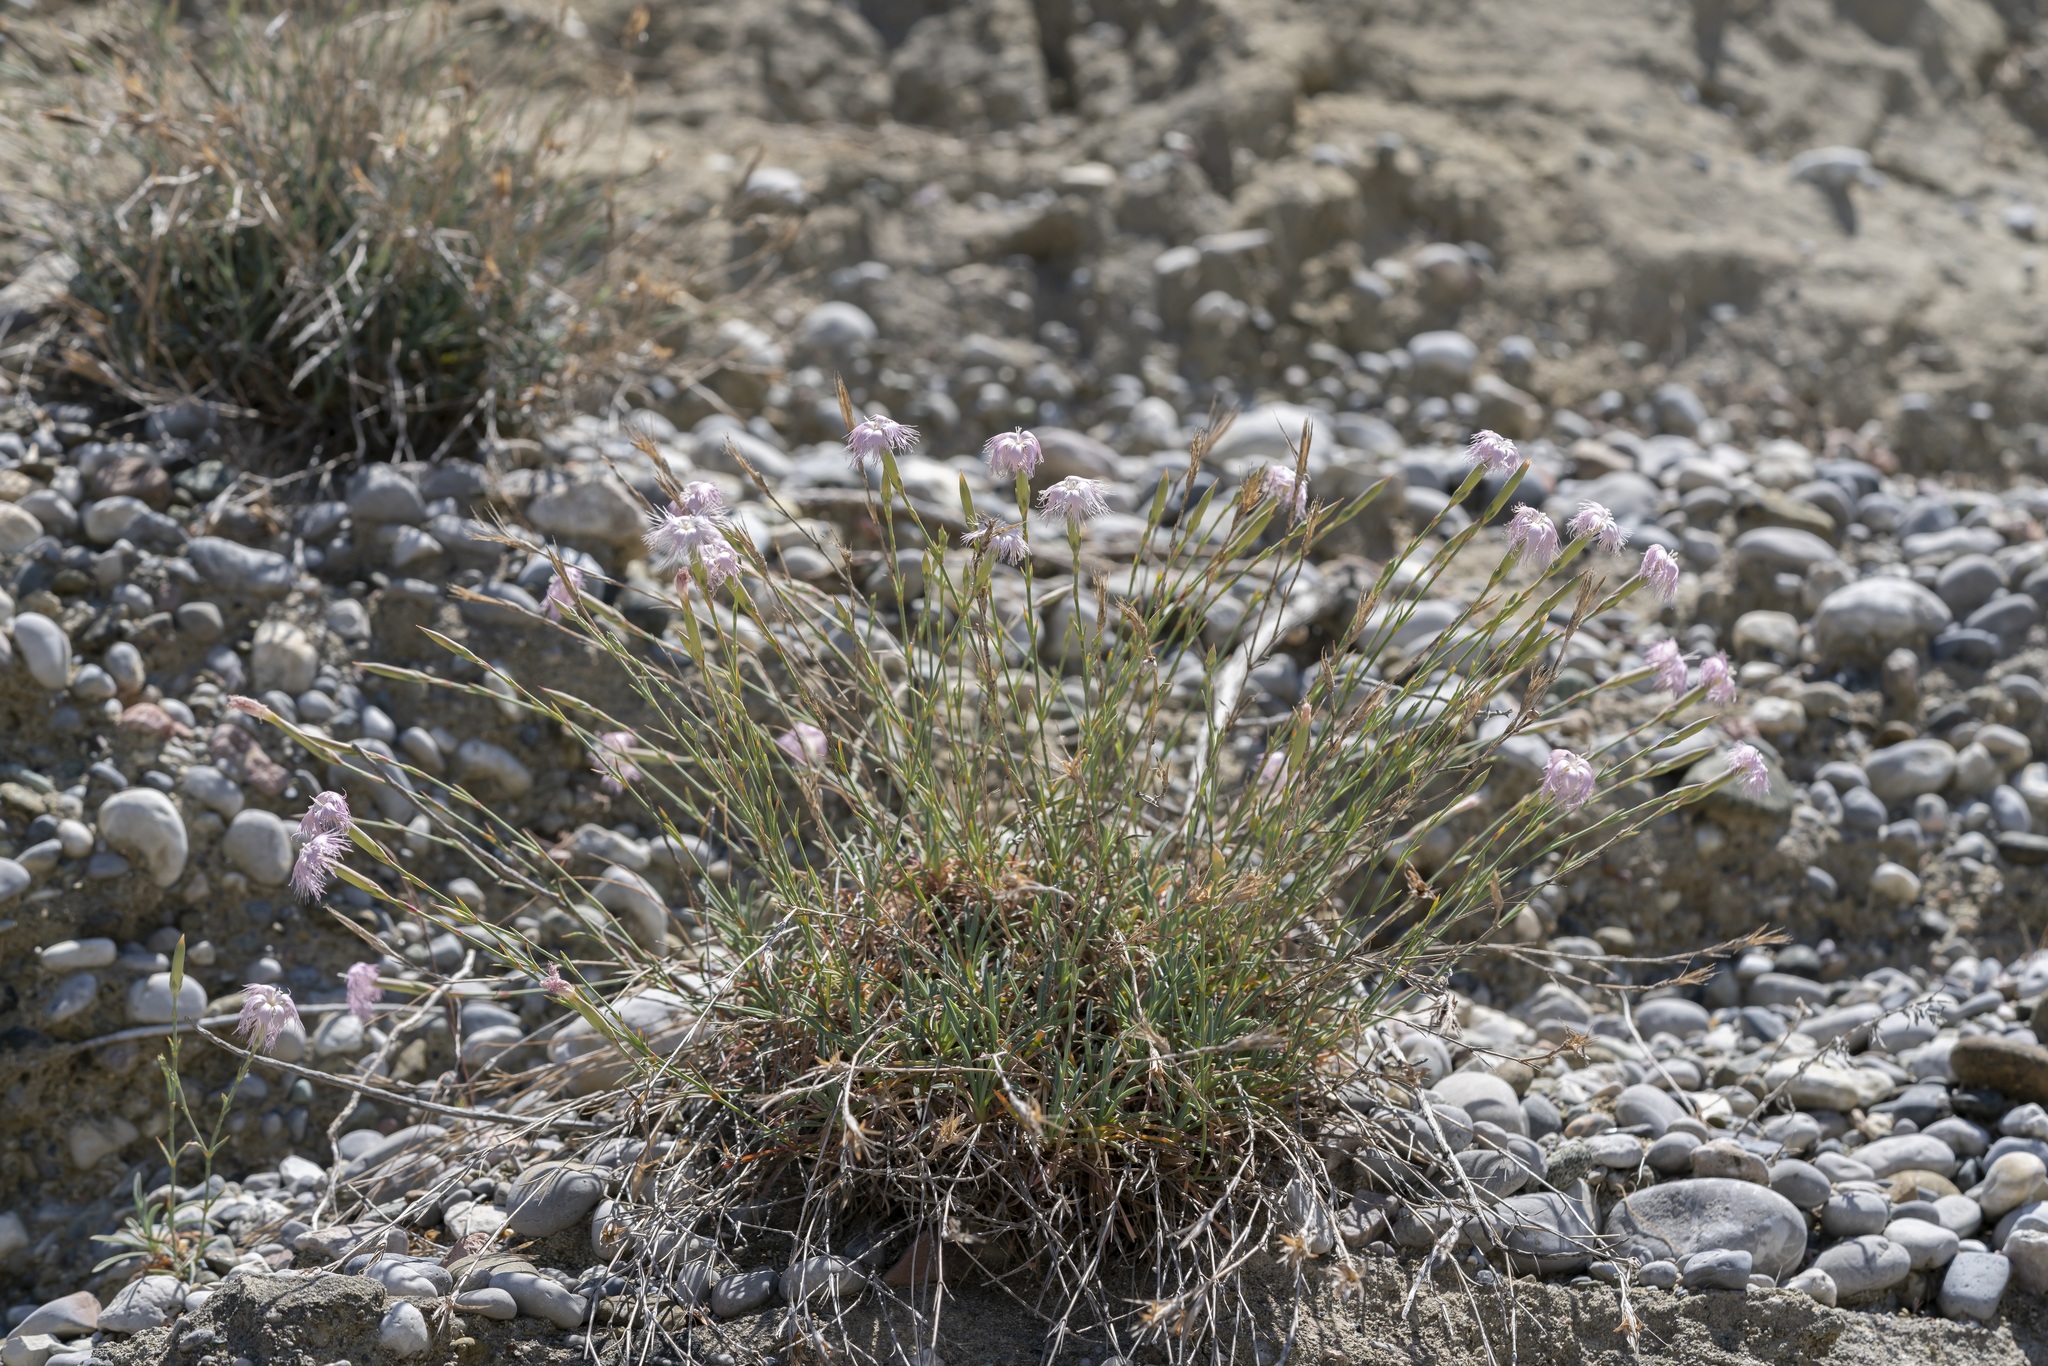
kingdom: Plantae
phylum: Tracheophyta
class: Magnoliopsida
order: Caryophyllales
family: Caryophyllaceae
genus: Dianthus
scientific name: Dianthus crinitus
